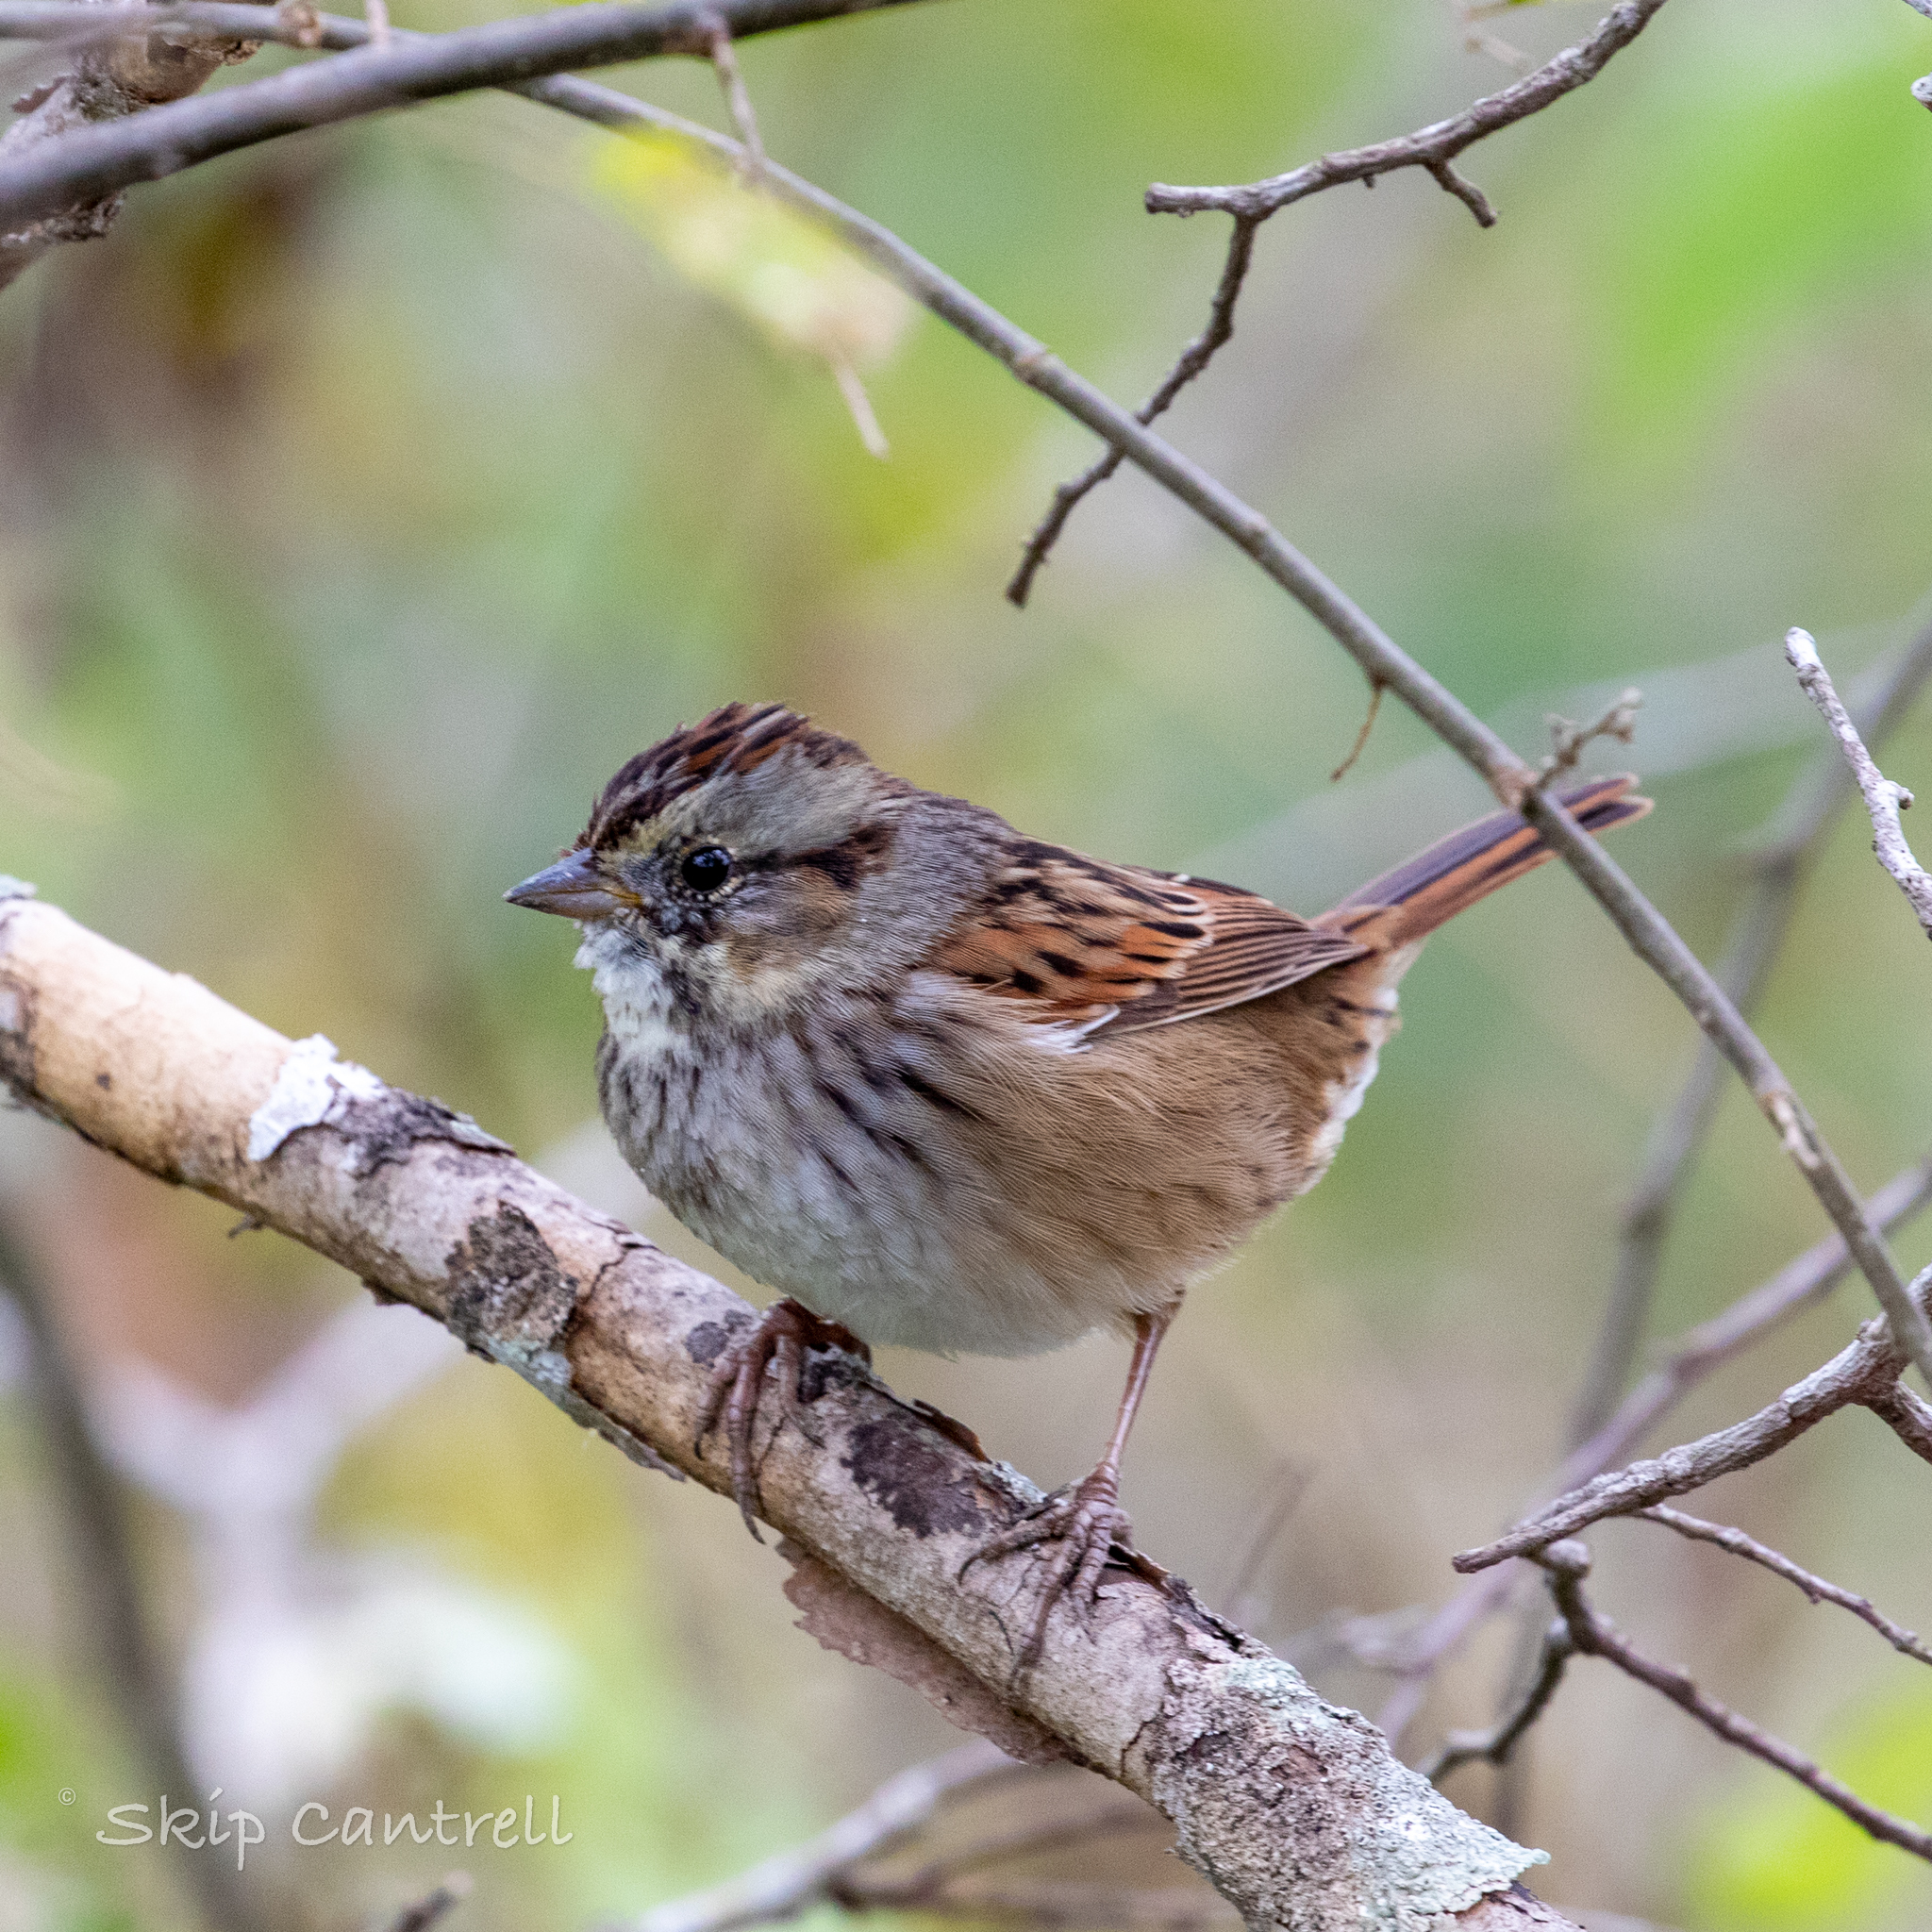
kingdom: Animalia
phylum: Chordata
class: Aves
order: Passeriformes
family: Passerellidae
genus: Melospiza
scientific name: Melospiza georgiana
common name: Swamp sparrow
